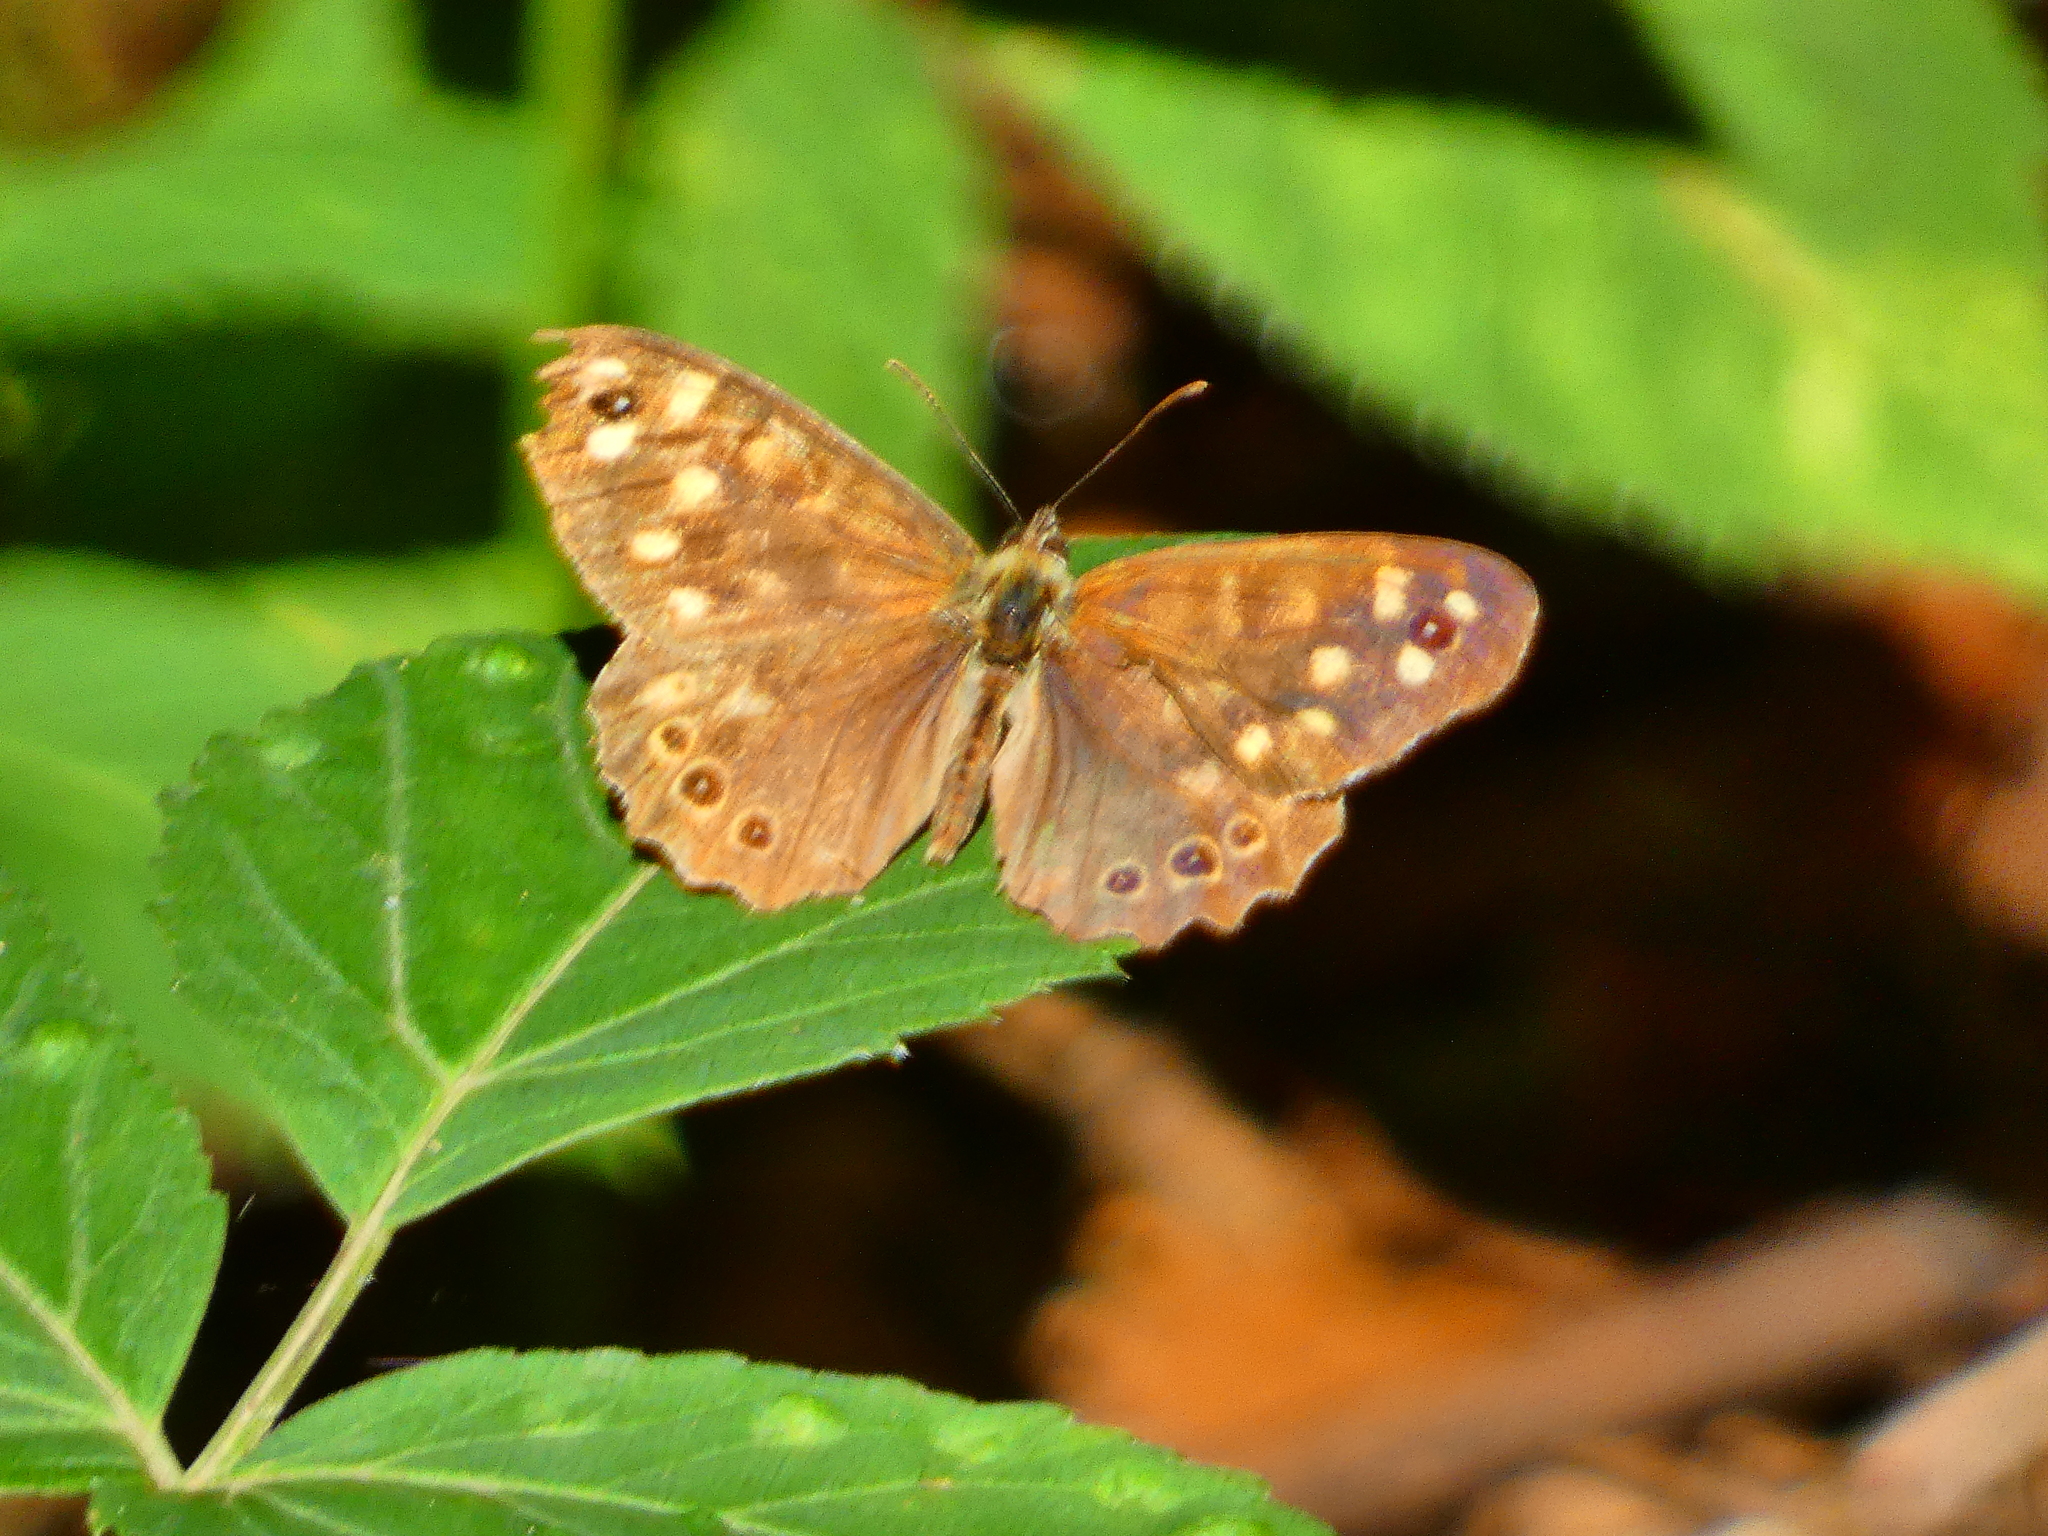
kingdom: Animalia
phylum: Arthropoda
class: Insecta
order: Lepidoptera
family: Nymphalidae
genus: Pararge
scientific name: Pararge aegeria
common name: Speckled wood
